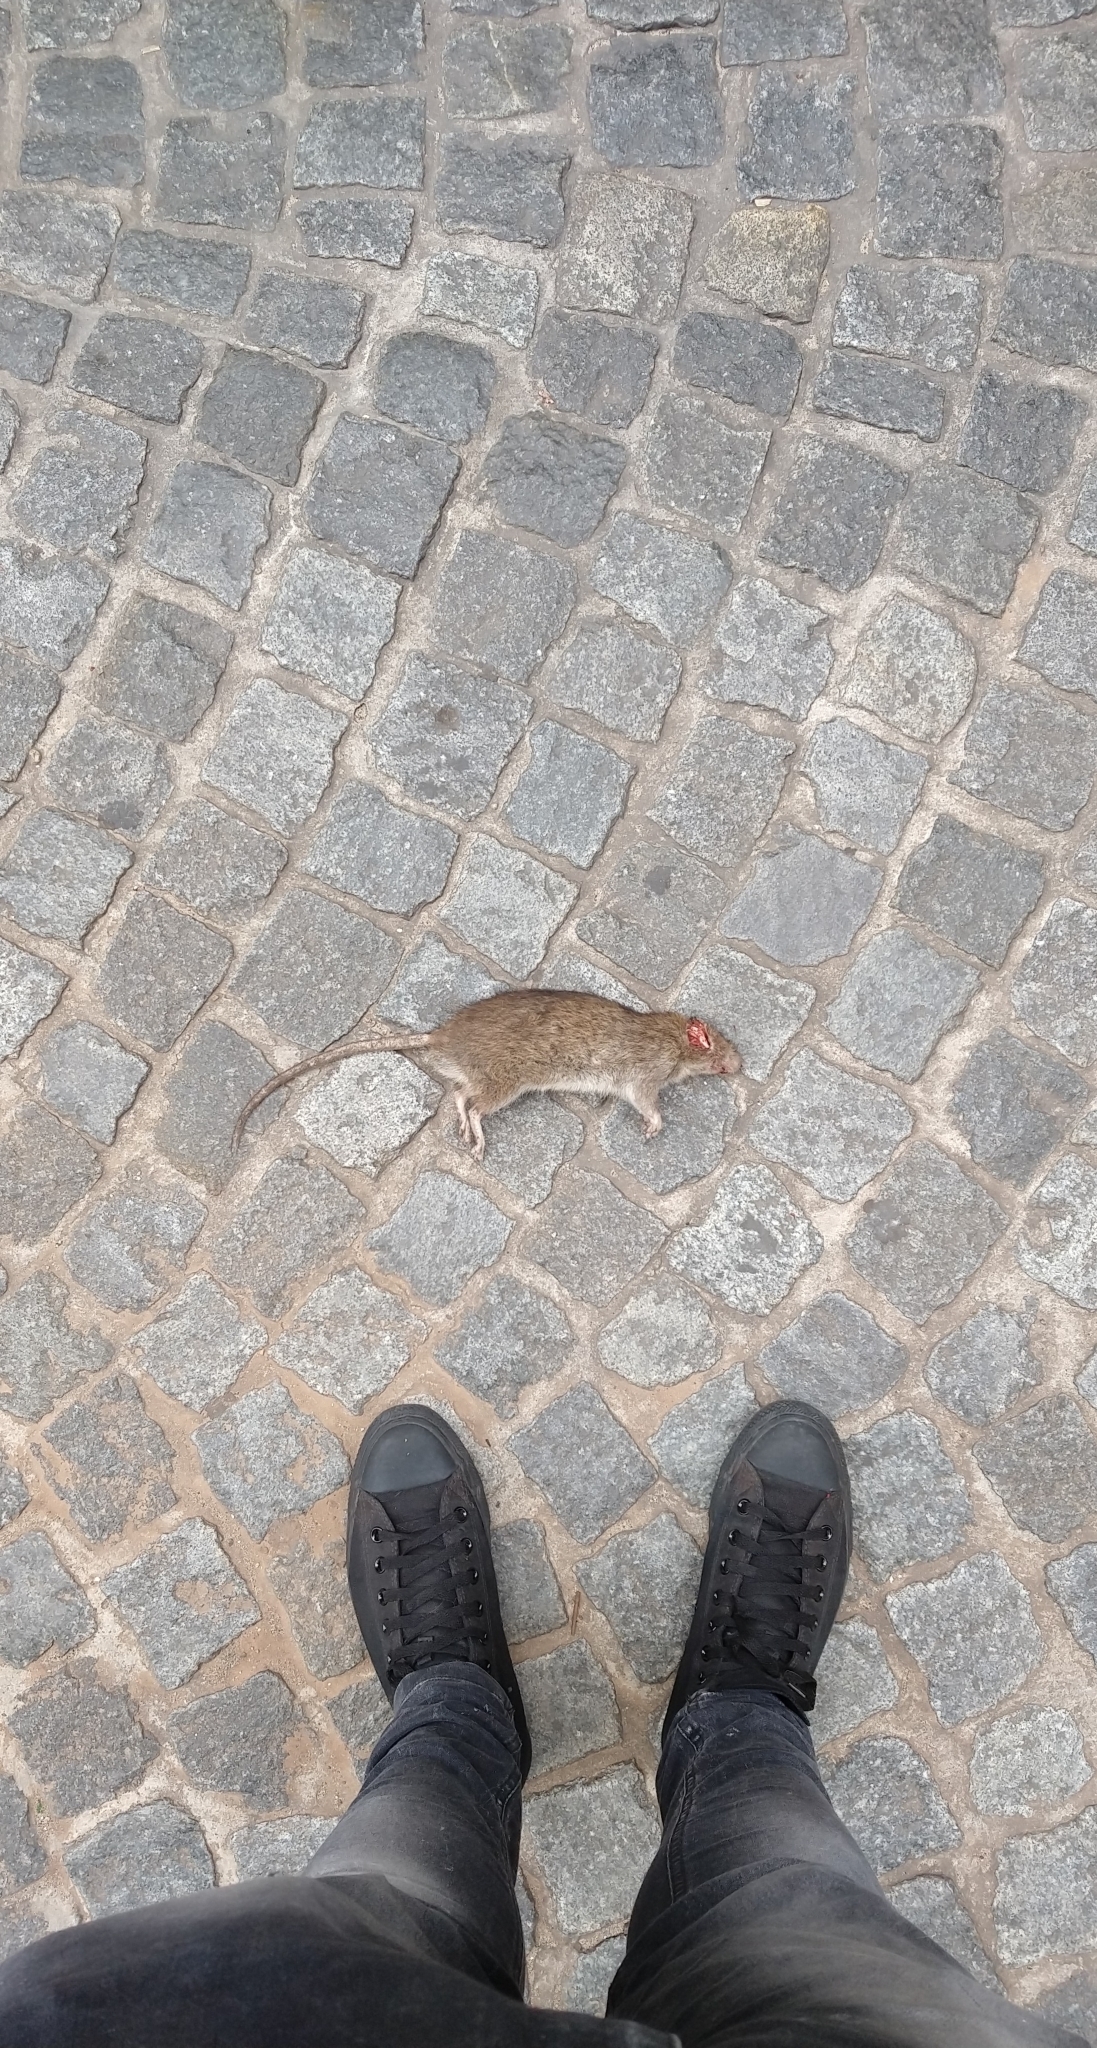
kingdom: Animalia
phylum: Chordata
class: Mammalia
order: Rodentia
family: Muridae
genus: Rattus
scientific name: Rattus norvegicus
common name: Brown rat
